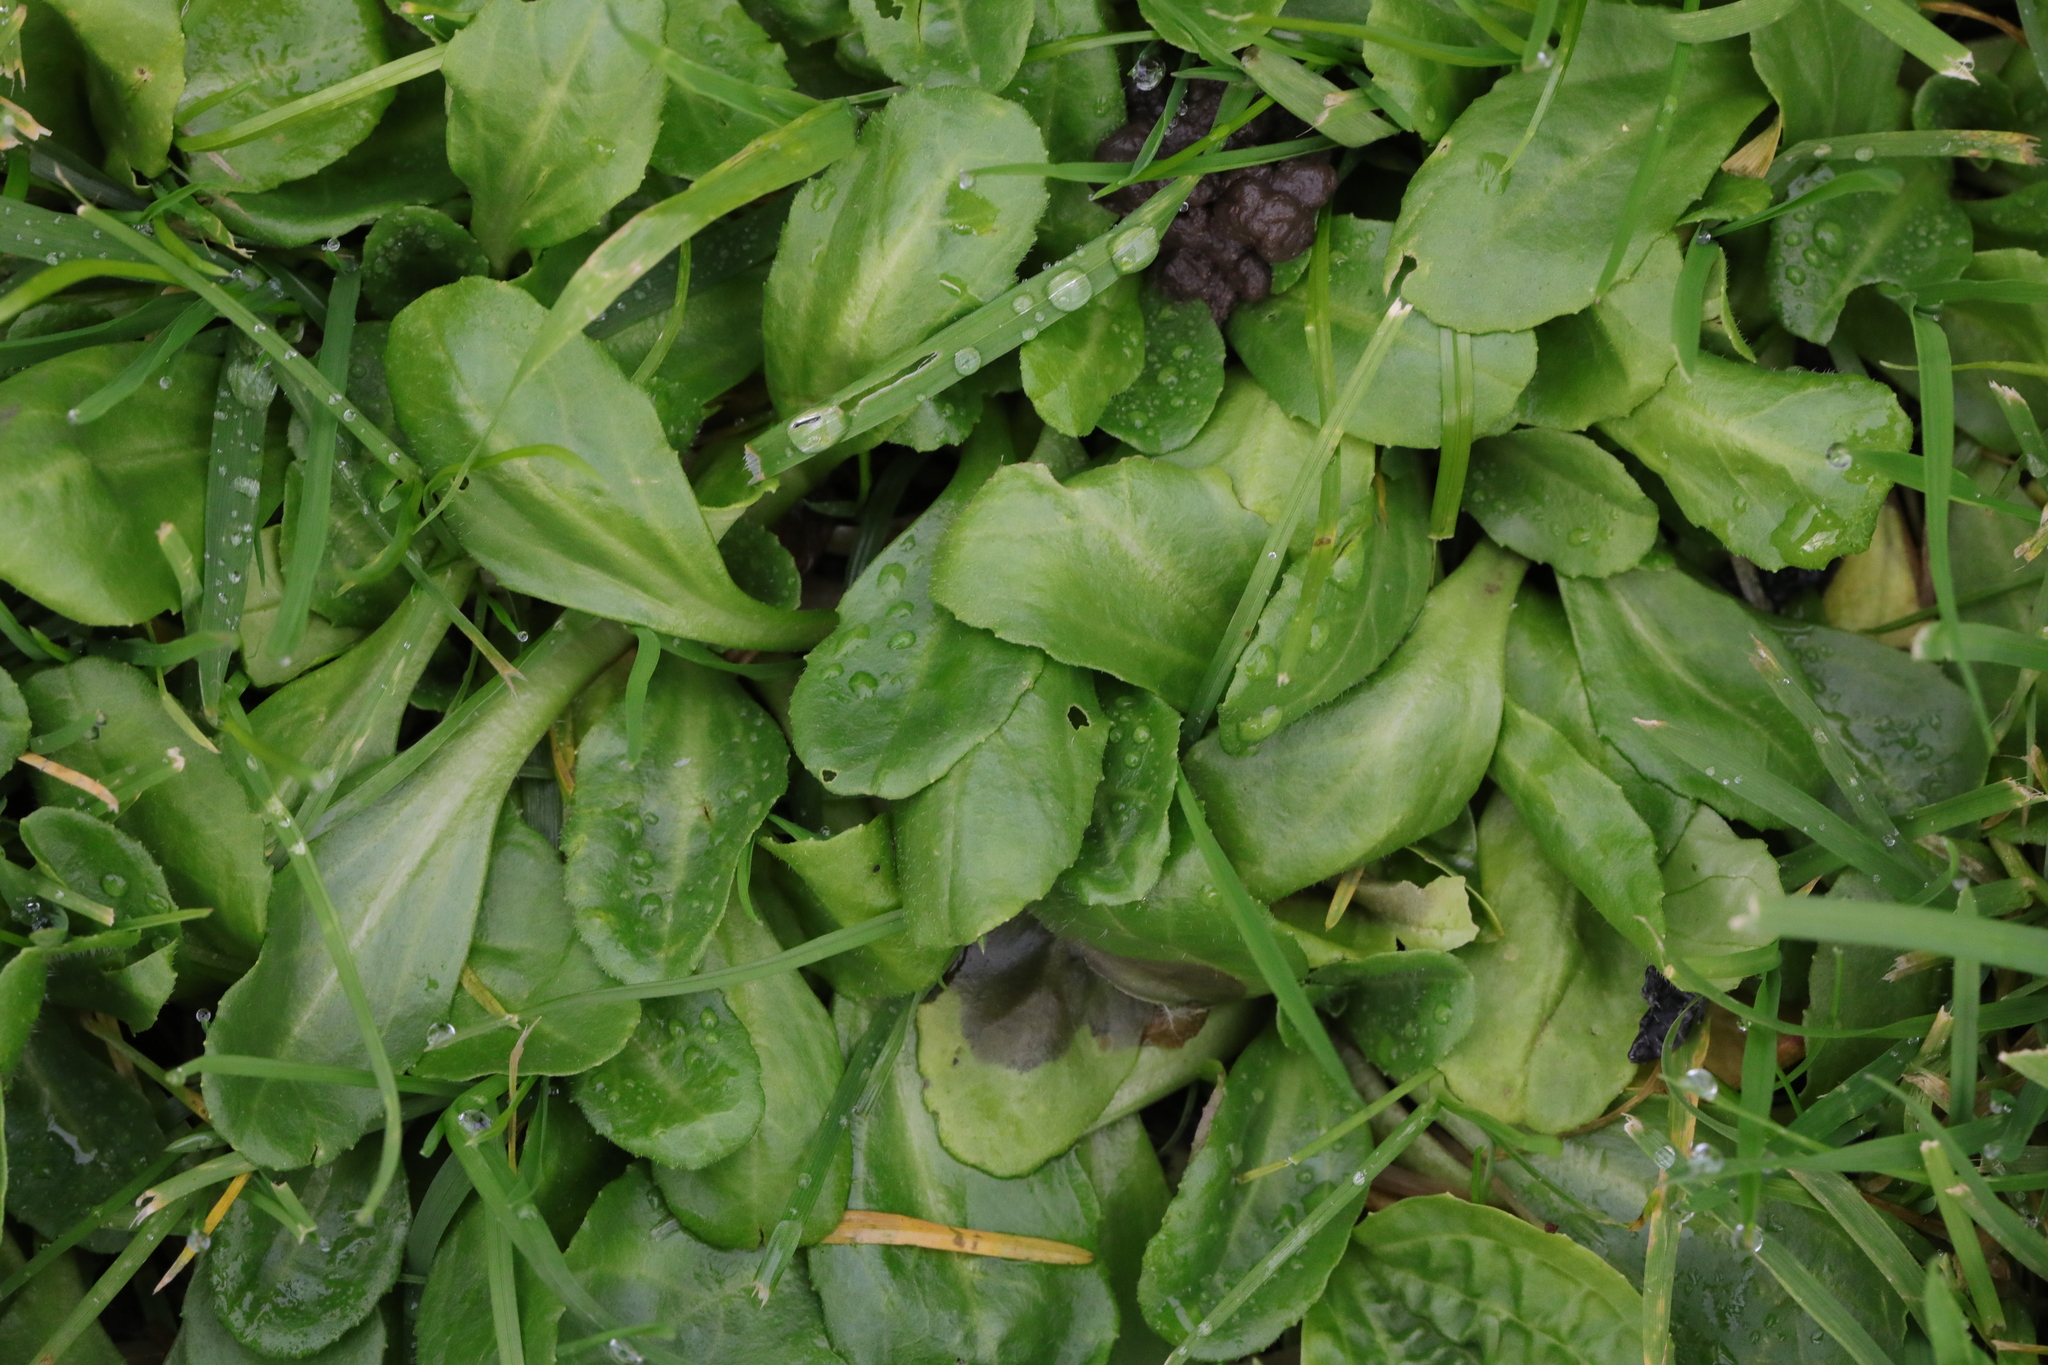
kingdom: Plantae
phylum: Tracheophyta
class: Magnoliopsida
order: Asterales
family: Asteraceae
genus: Bellis
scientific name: Bellis perennis
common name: Lawndaisy
